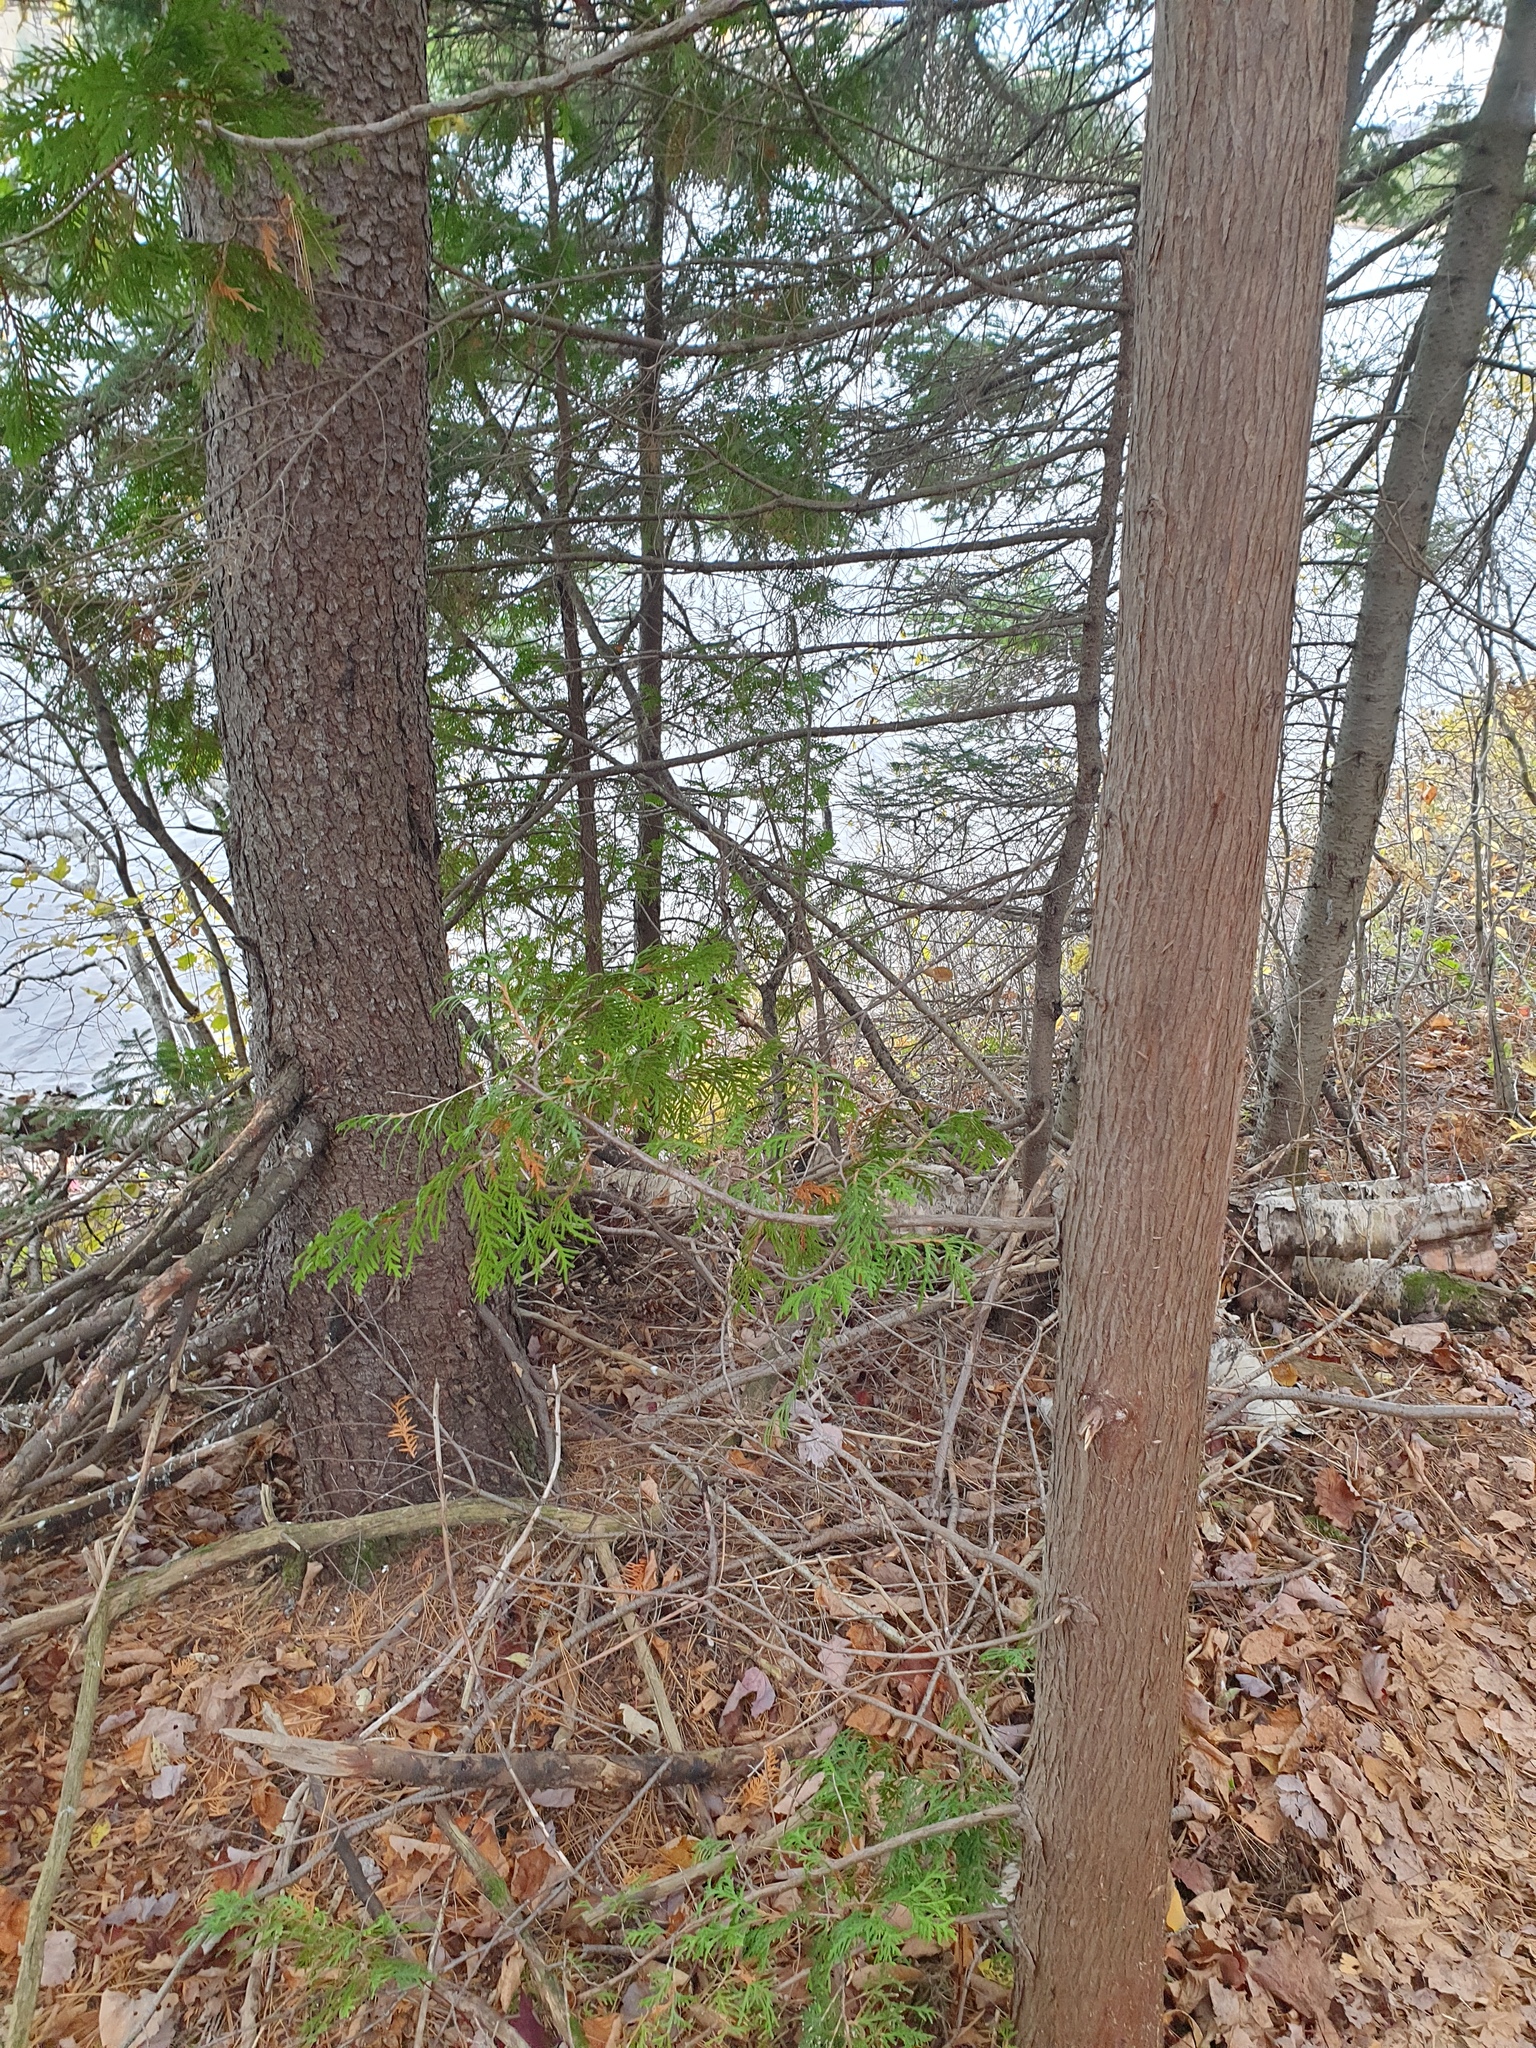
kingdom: Plantae
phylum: Tracheophyta
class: Pinopsida
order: Pinales
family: Cupressaceae
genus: Thuja
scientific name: Thuja occidentalis
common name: Northern white-cedar
